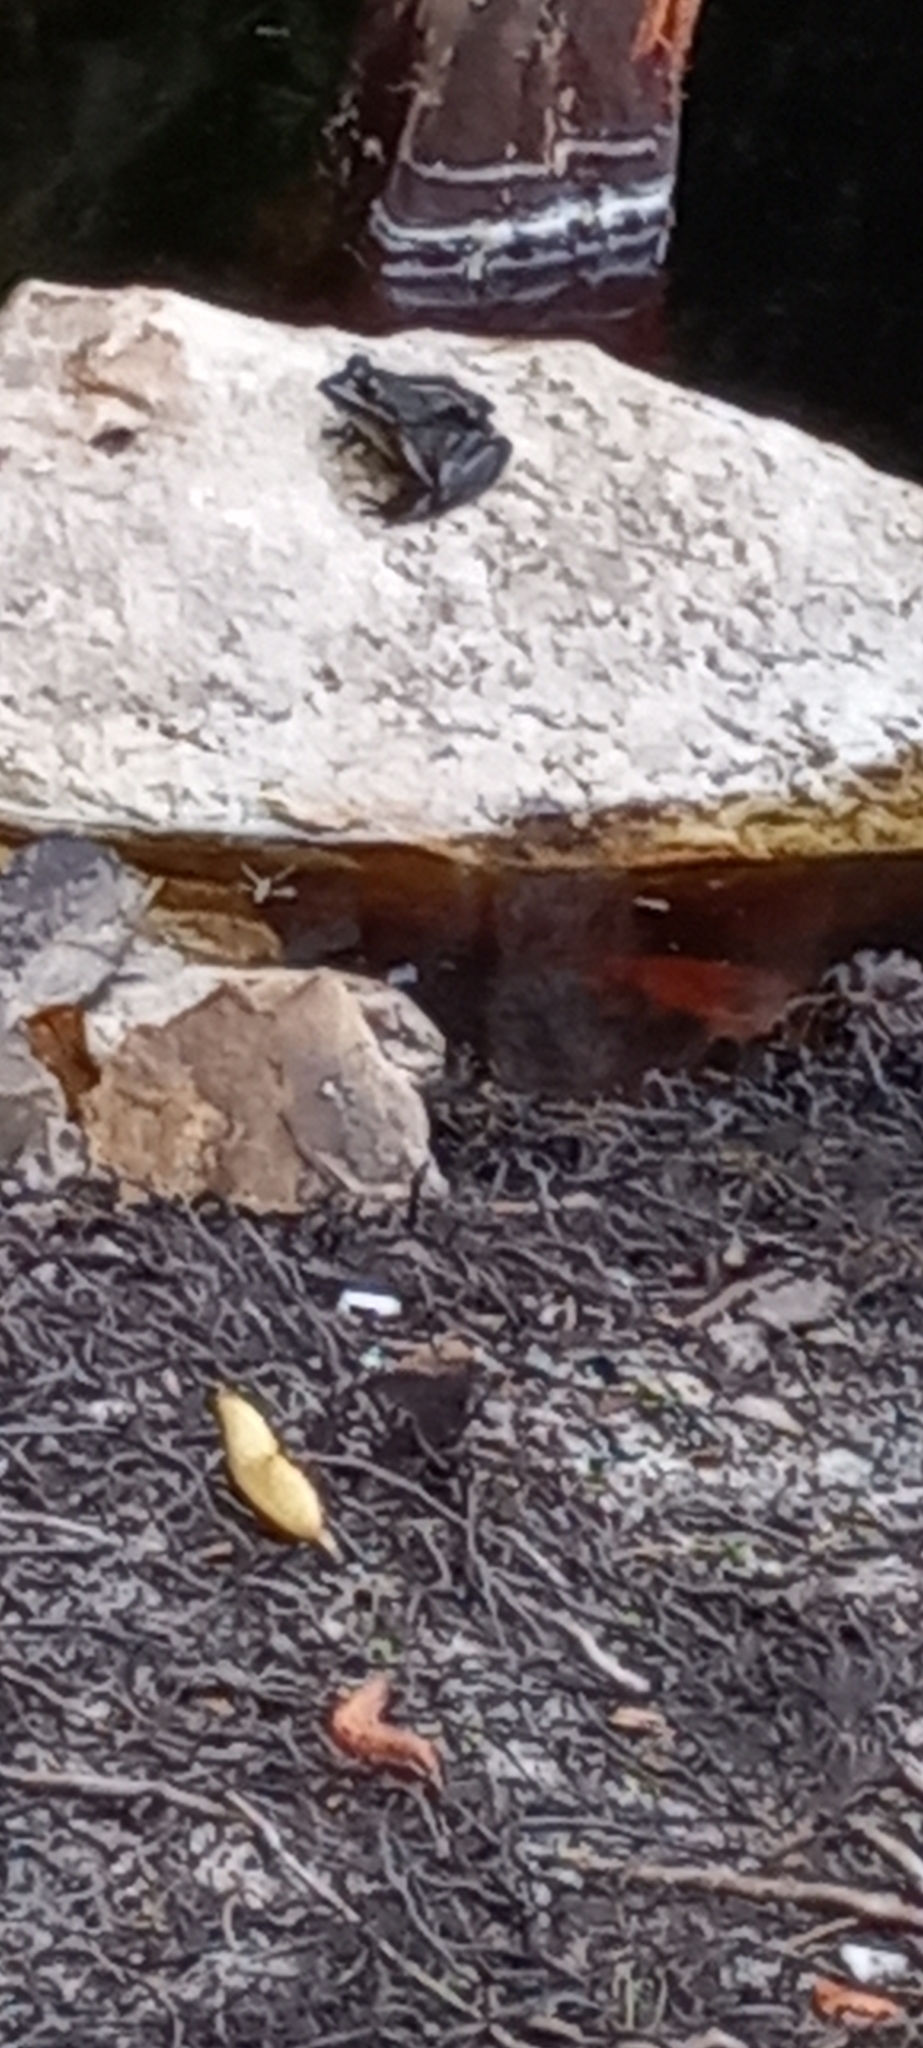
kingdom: Animalia
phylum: Chordata
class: Amphibia
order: Anura
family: Pyxicephalidae
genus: Amietia
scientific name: Amietia fuscigula
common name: Cape rana
